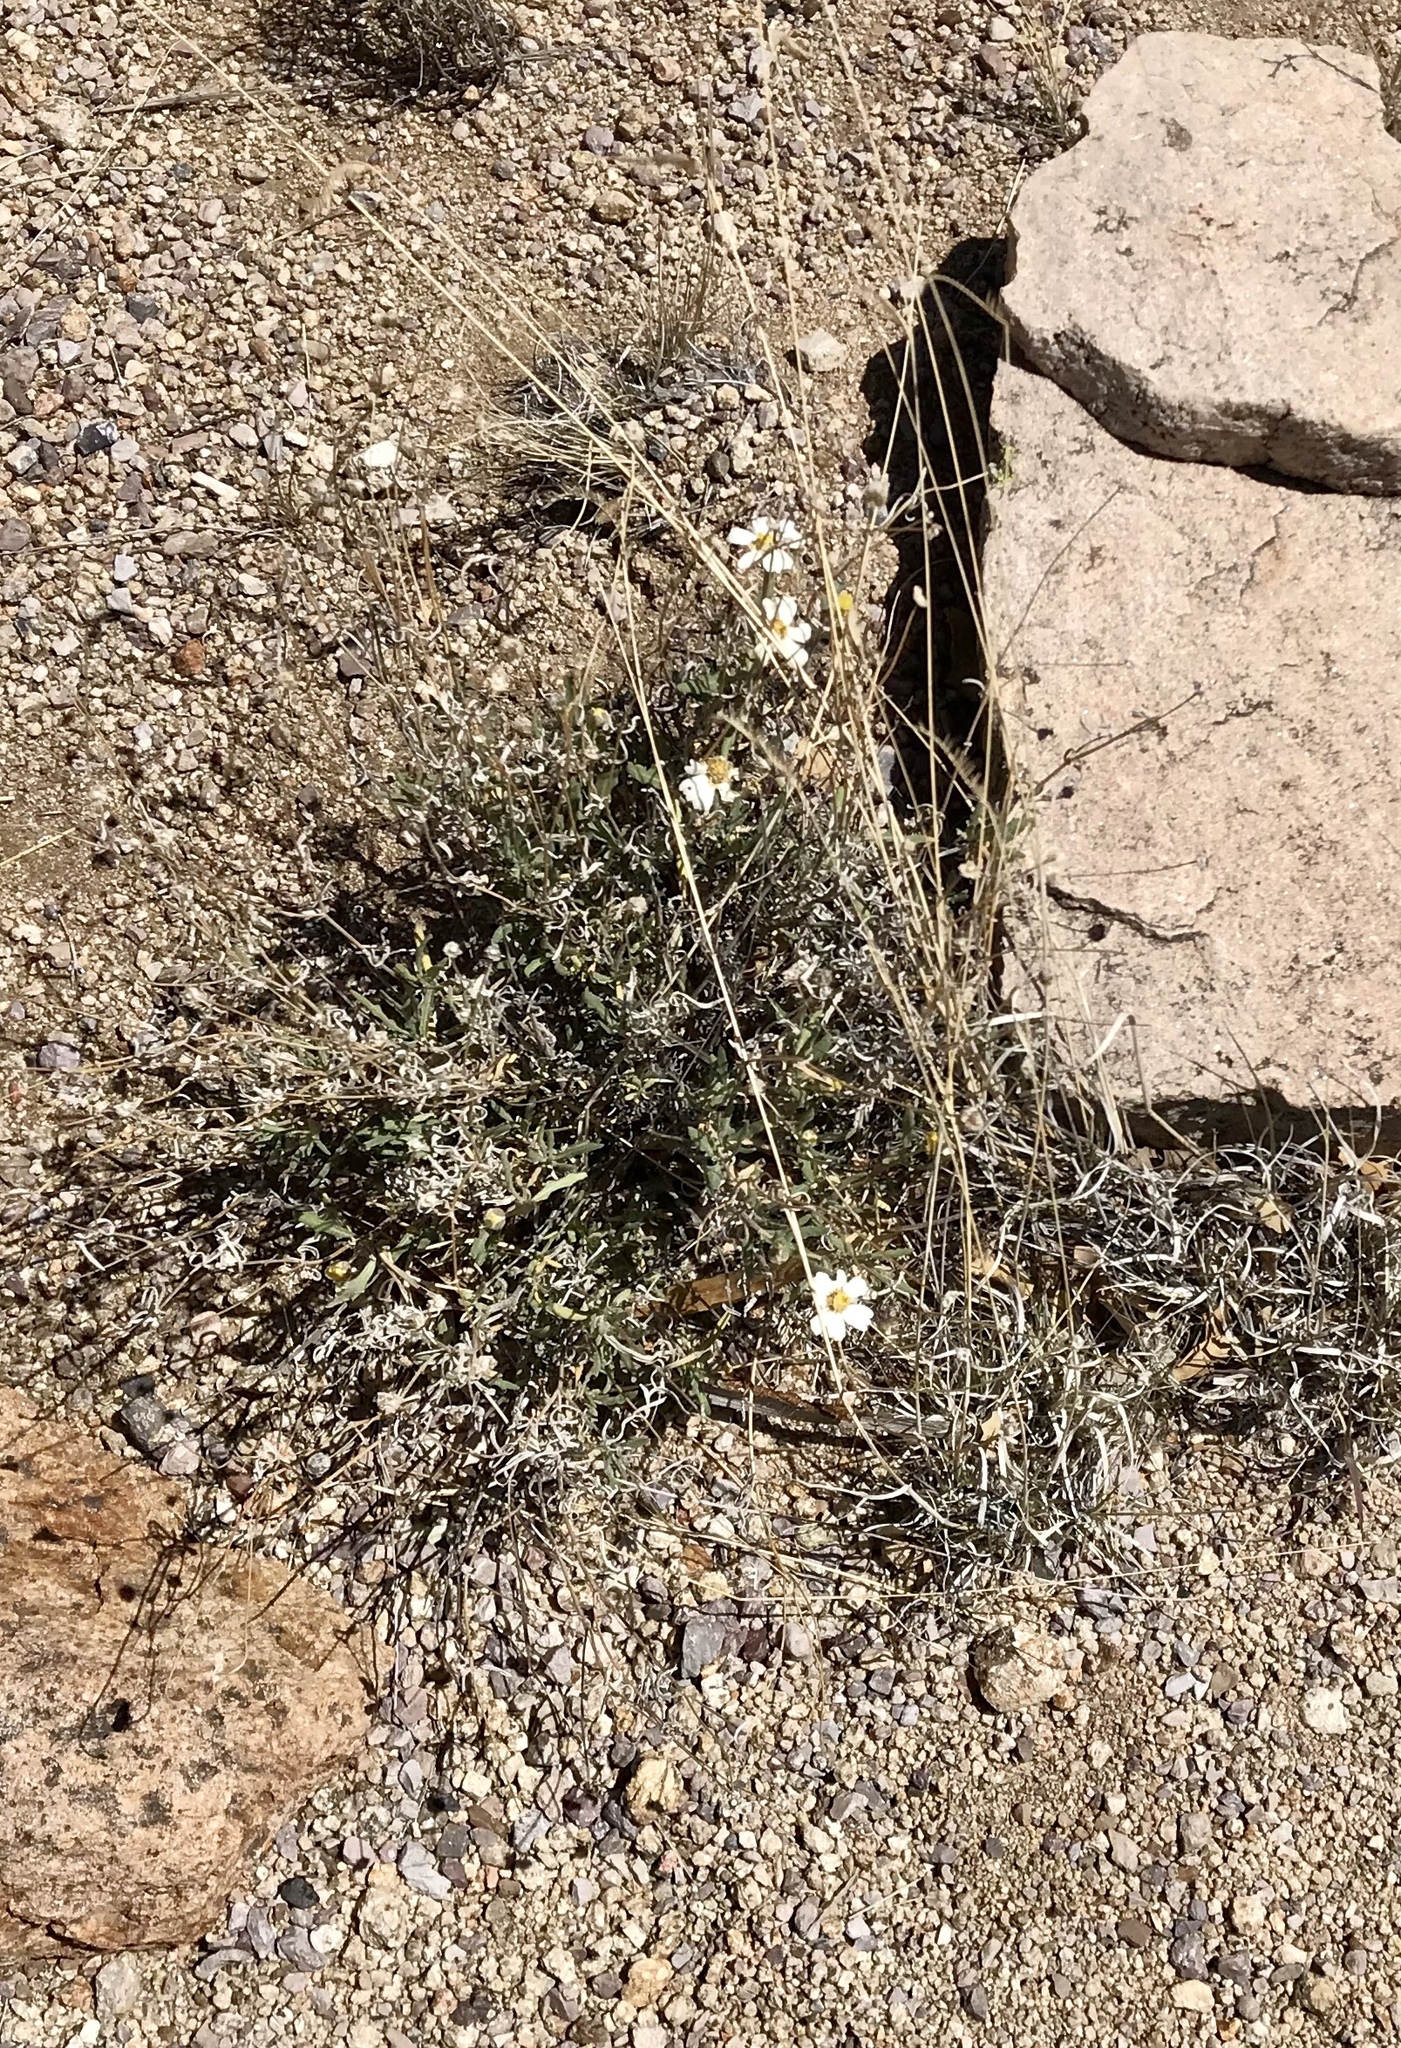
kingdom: Plantae
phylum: Tracheophyta
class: Magnoliopsida
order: Asterales
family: Asteraceae
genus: Melampodium
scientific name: Melampodium leucanthum
